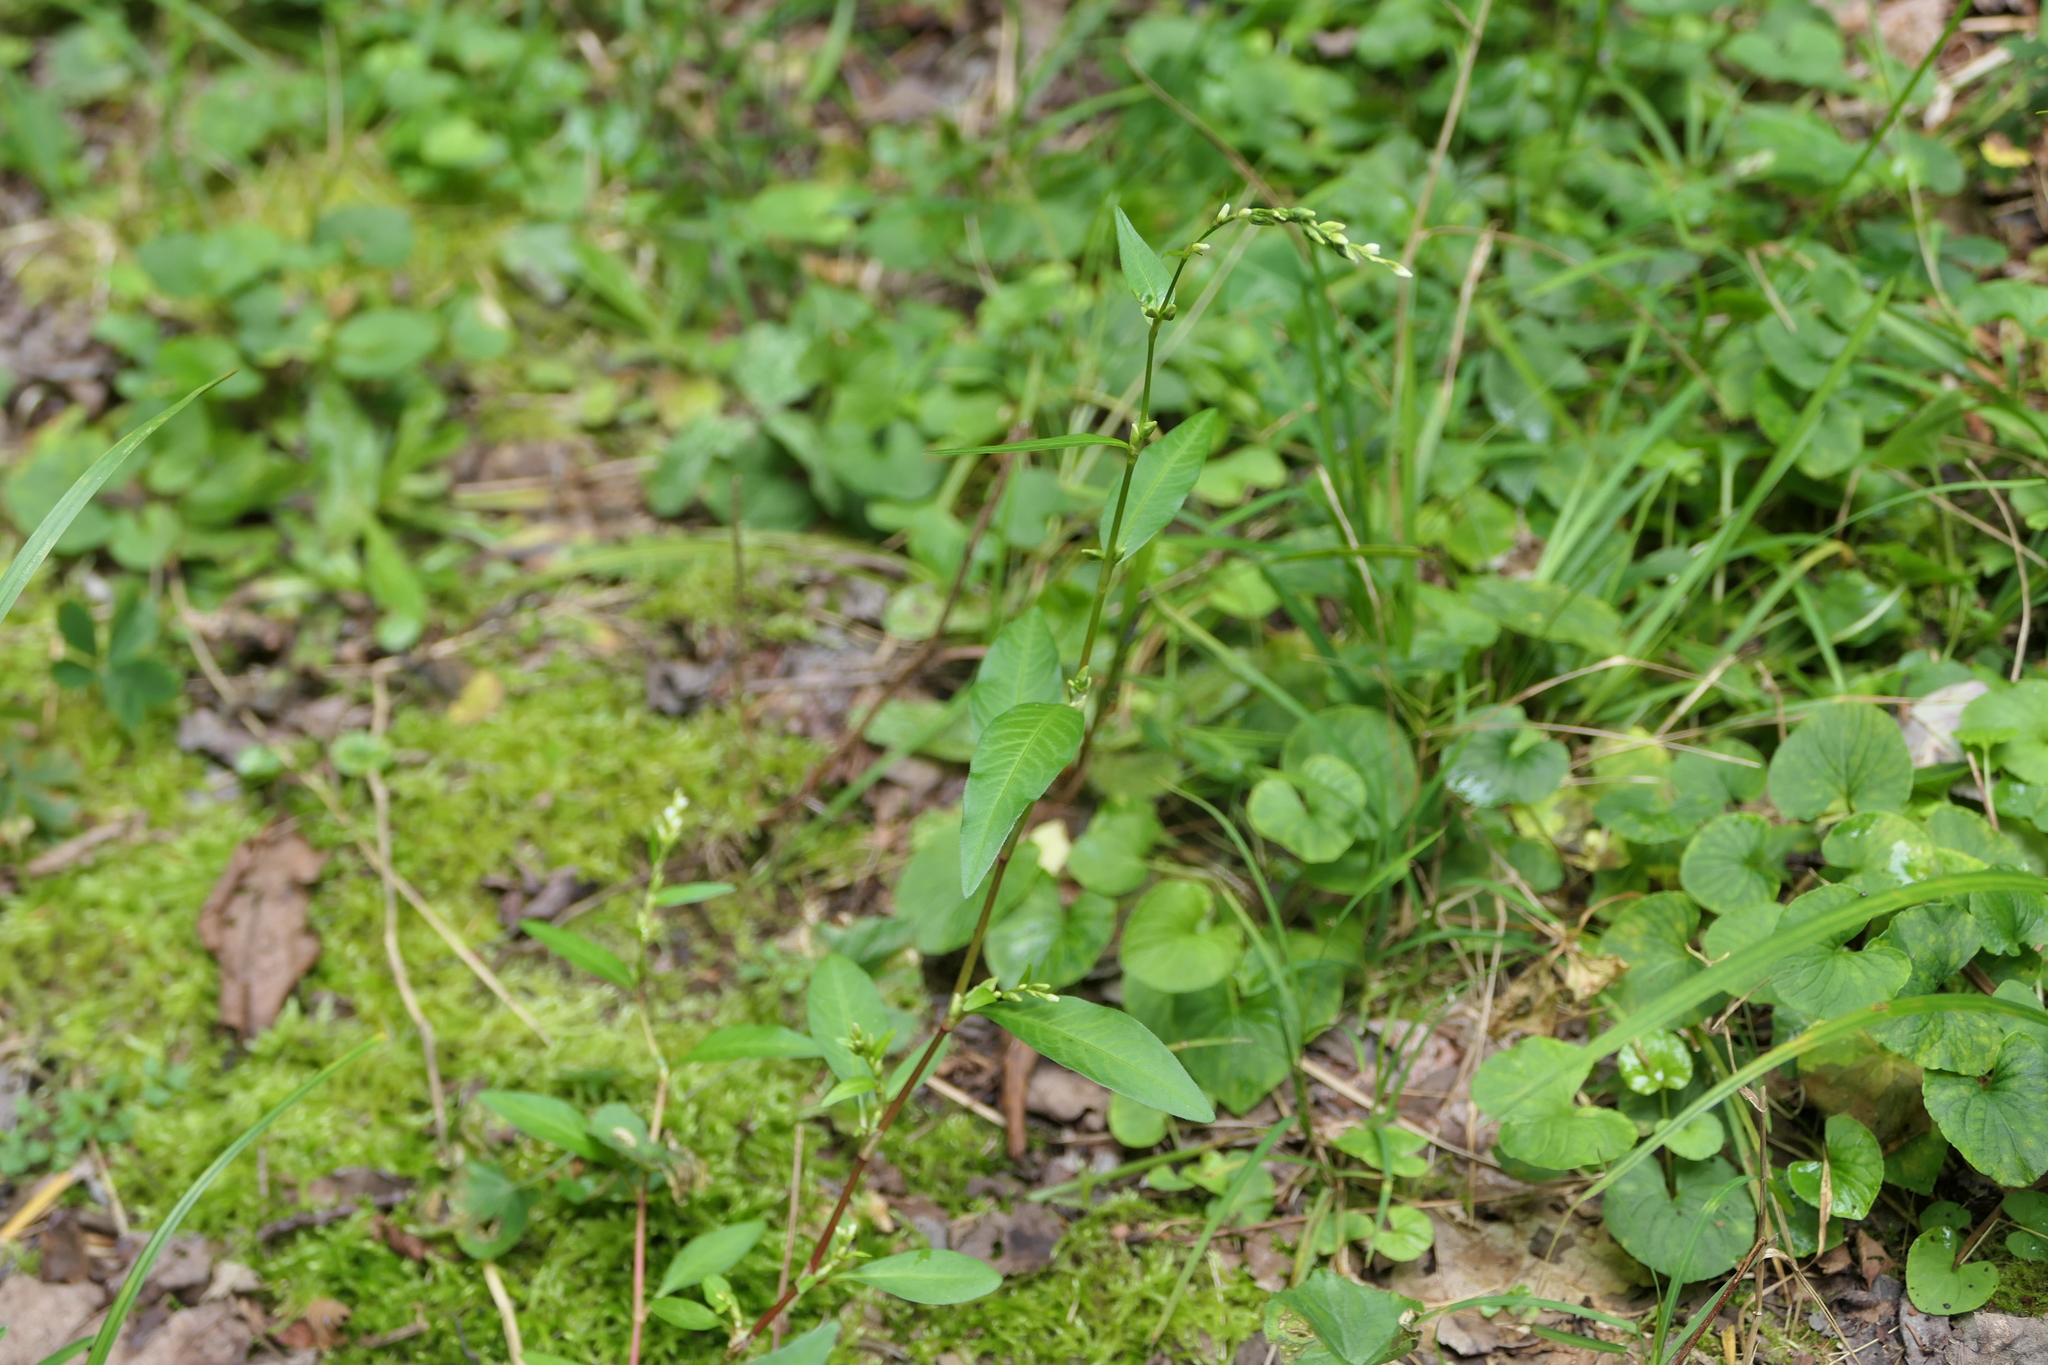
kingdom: Plantae
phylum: Tracheophyta
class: Magnoliopsida
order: Caryophyllales
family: Polygonaceae
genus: Persicaria
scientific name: Persicaria punctata
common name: Dotted smartweed
